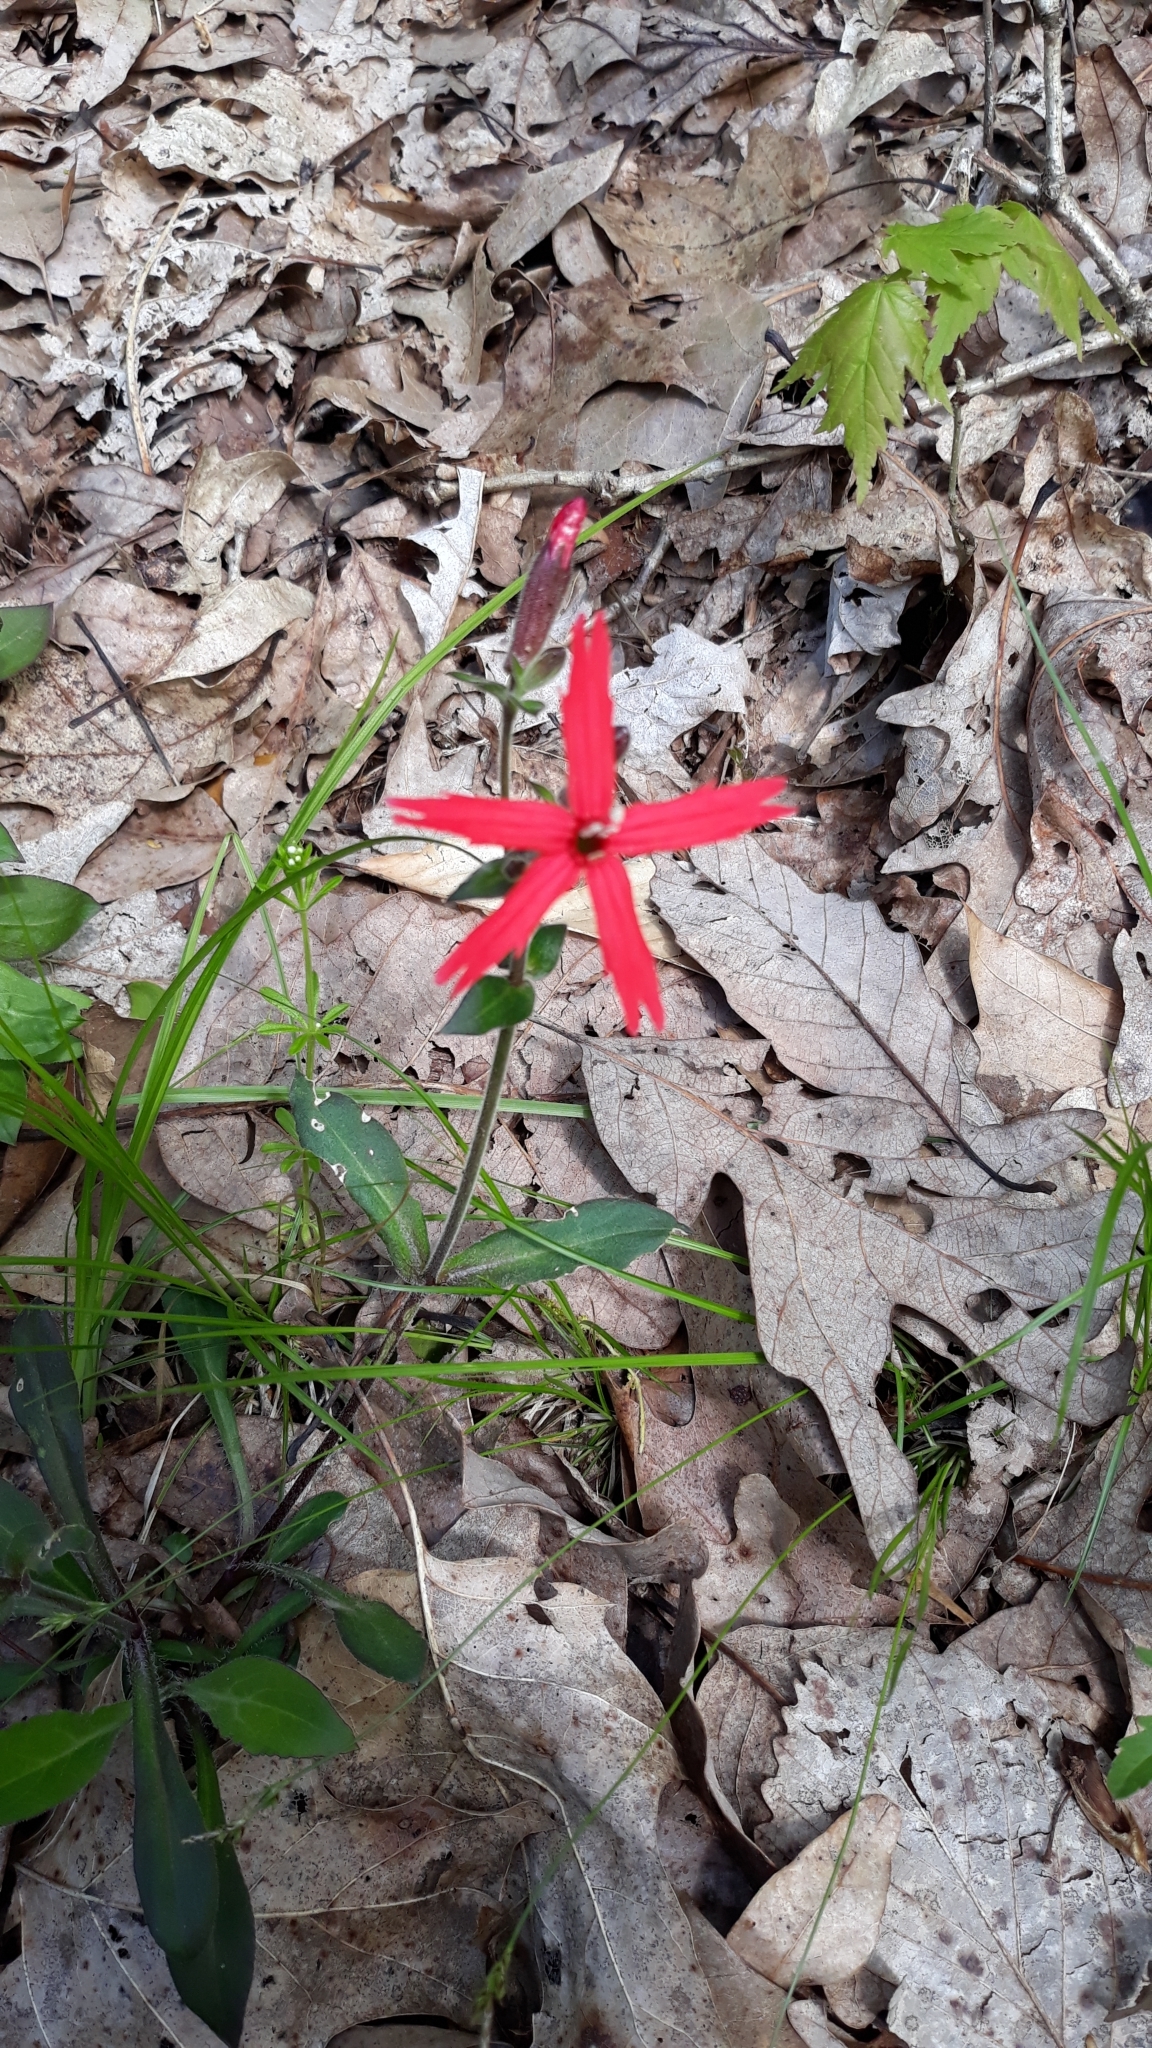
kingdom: Plantae
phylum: Tracheophyta
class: Magnoliopsida
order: Caryophyllales
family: Caryophyllaceae
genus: Silene
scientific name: Silene virginica
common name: Fire-pink
